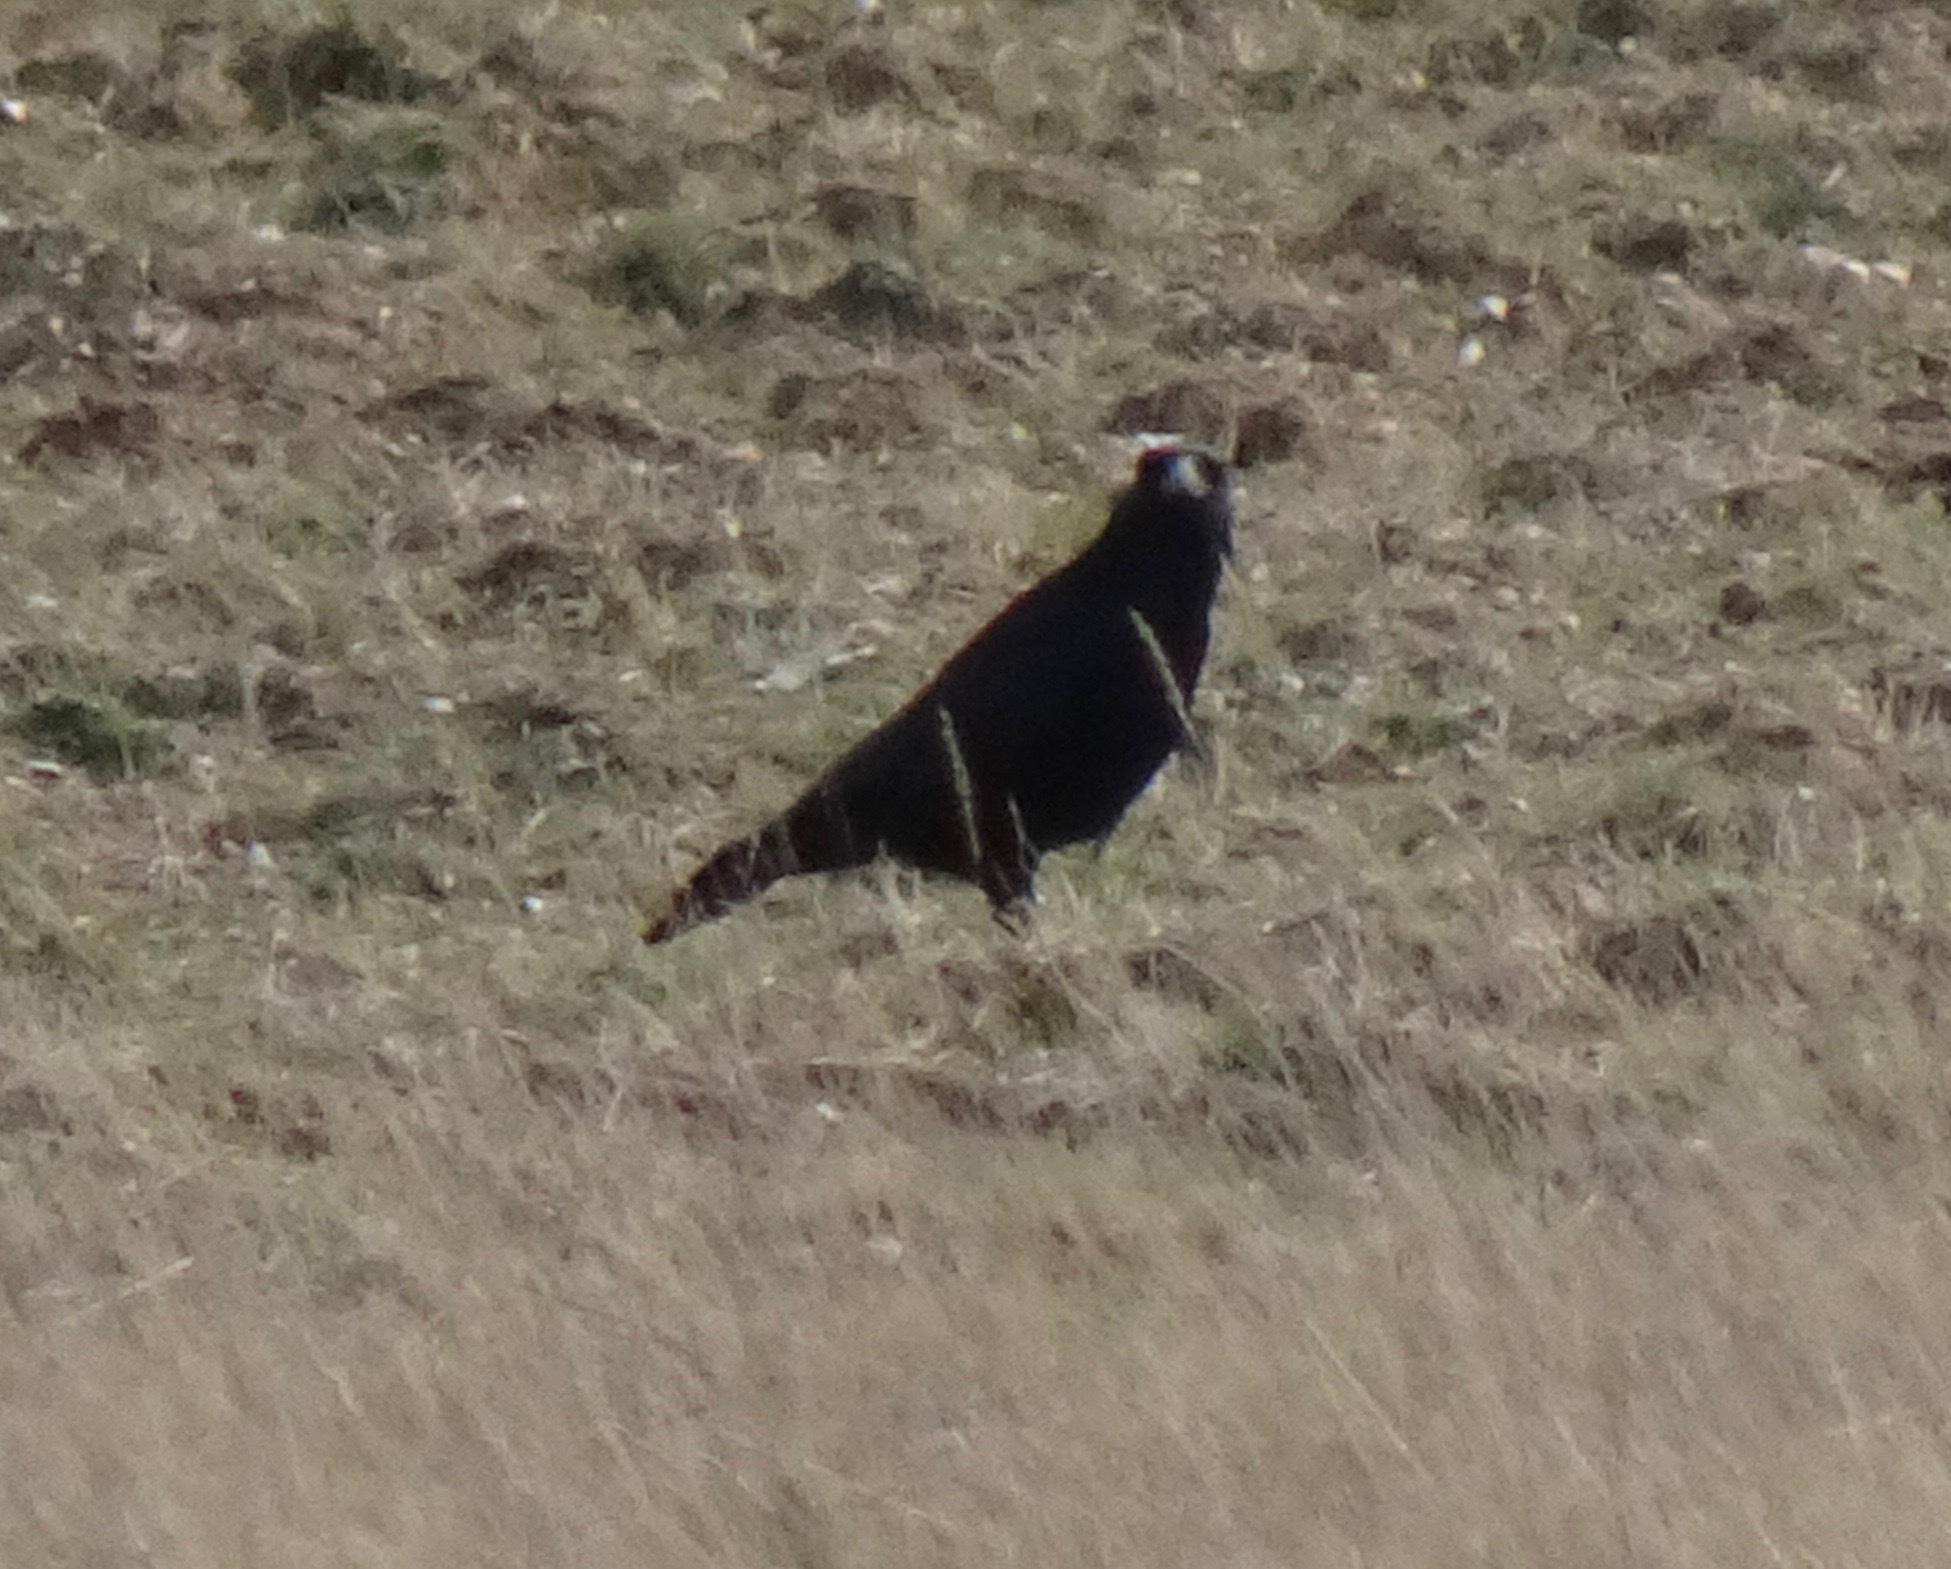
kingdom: Animalia
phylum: Chordata
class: Aves
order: Passeriformes
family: Corvidae
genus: Corvus
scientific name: Corvus corone
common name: Carrion crow
